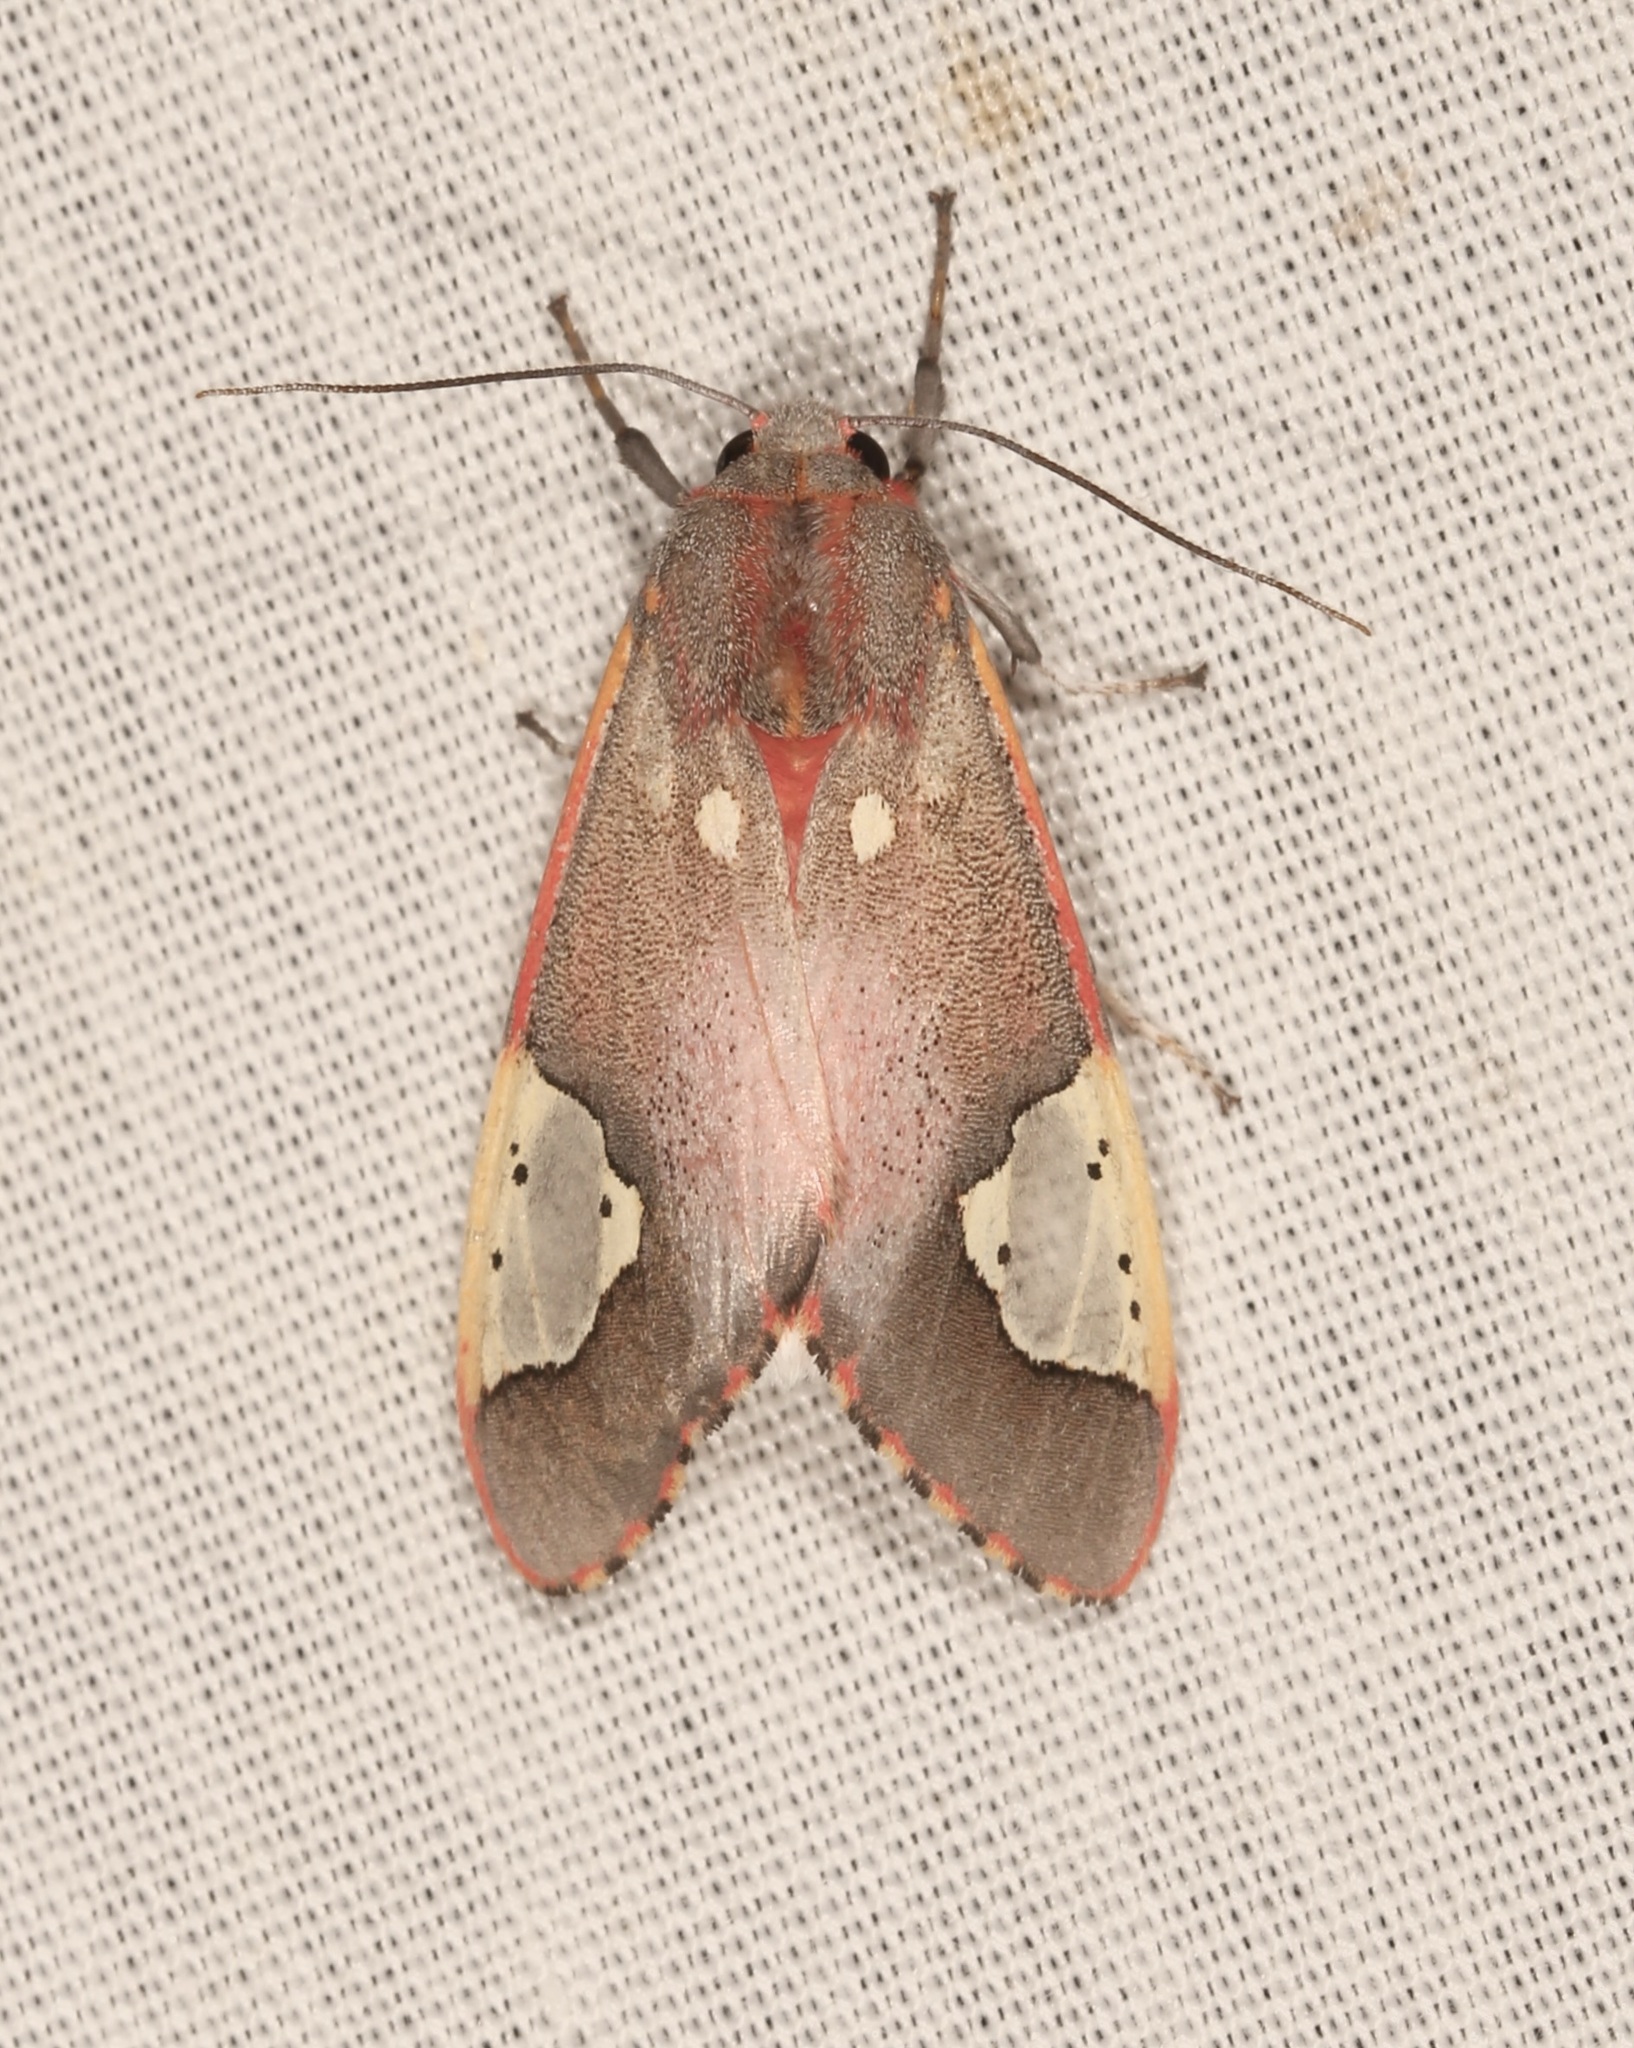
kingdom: Animalia
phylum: Arthropoda
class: Insecta
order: Lepidoptera
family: Erebidae
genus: Bertholdia
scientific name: Bertholdia trigona
